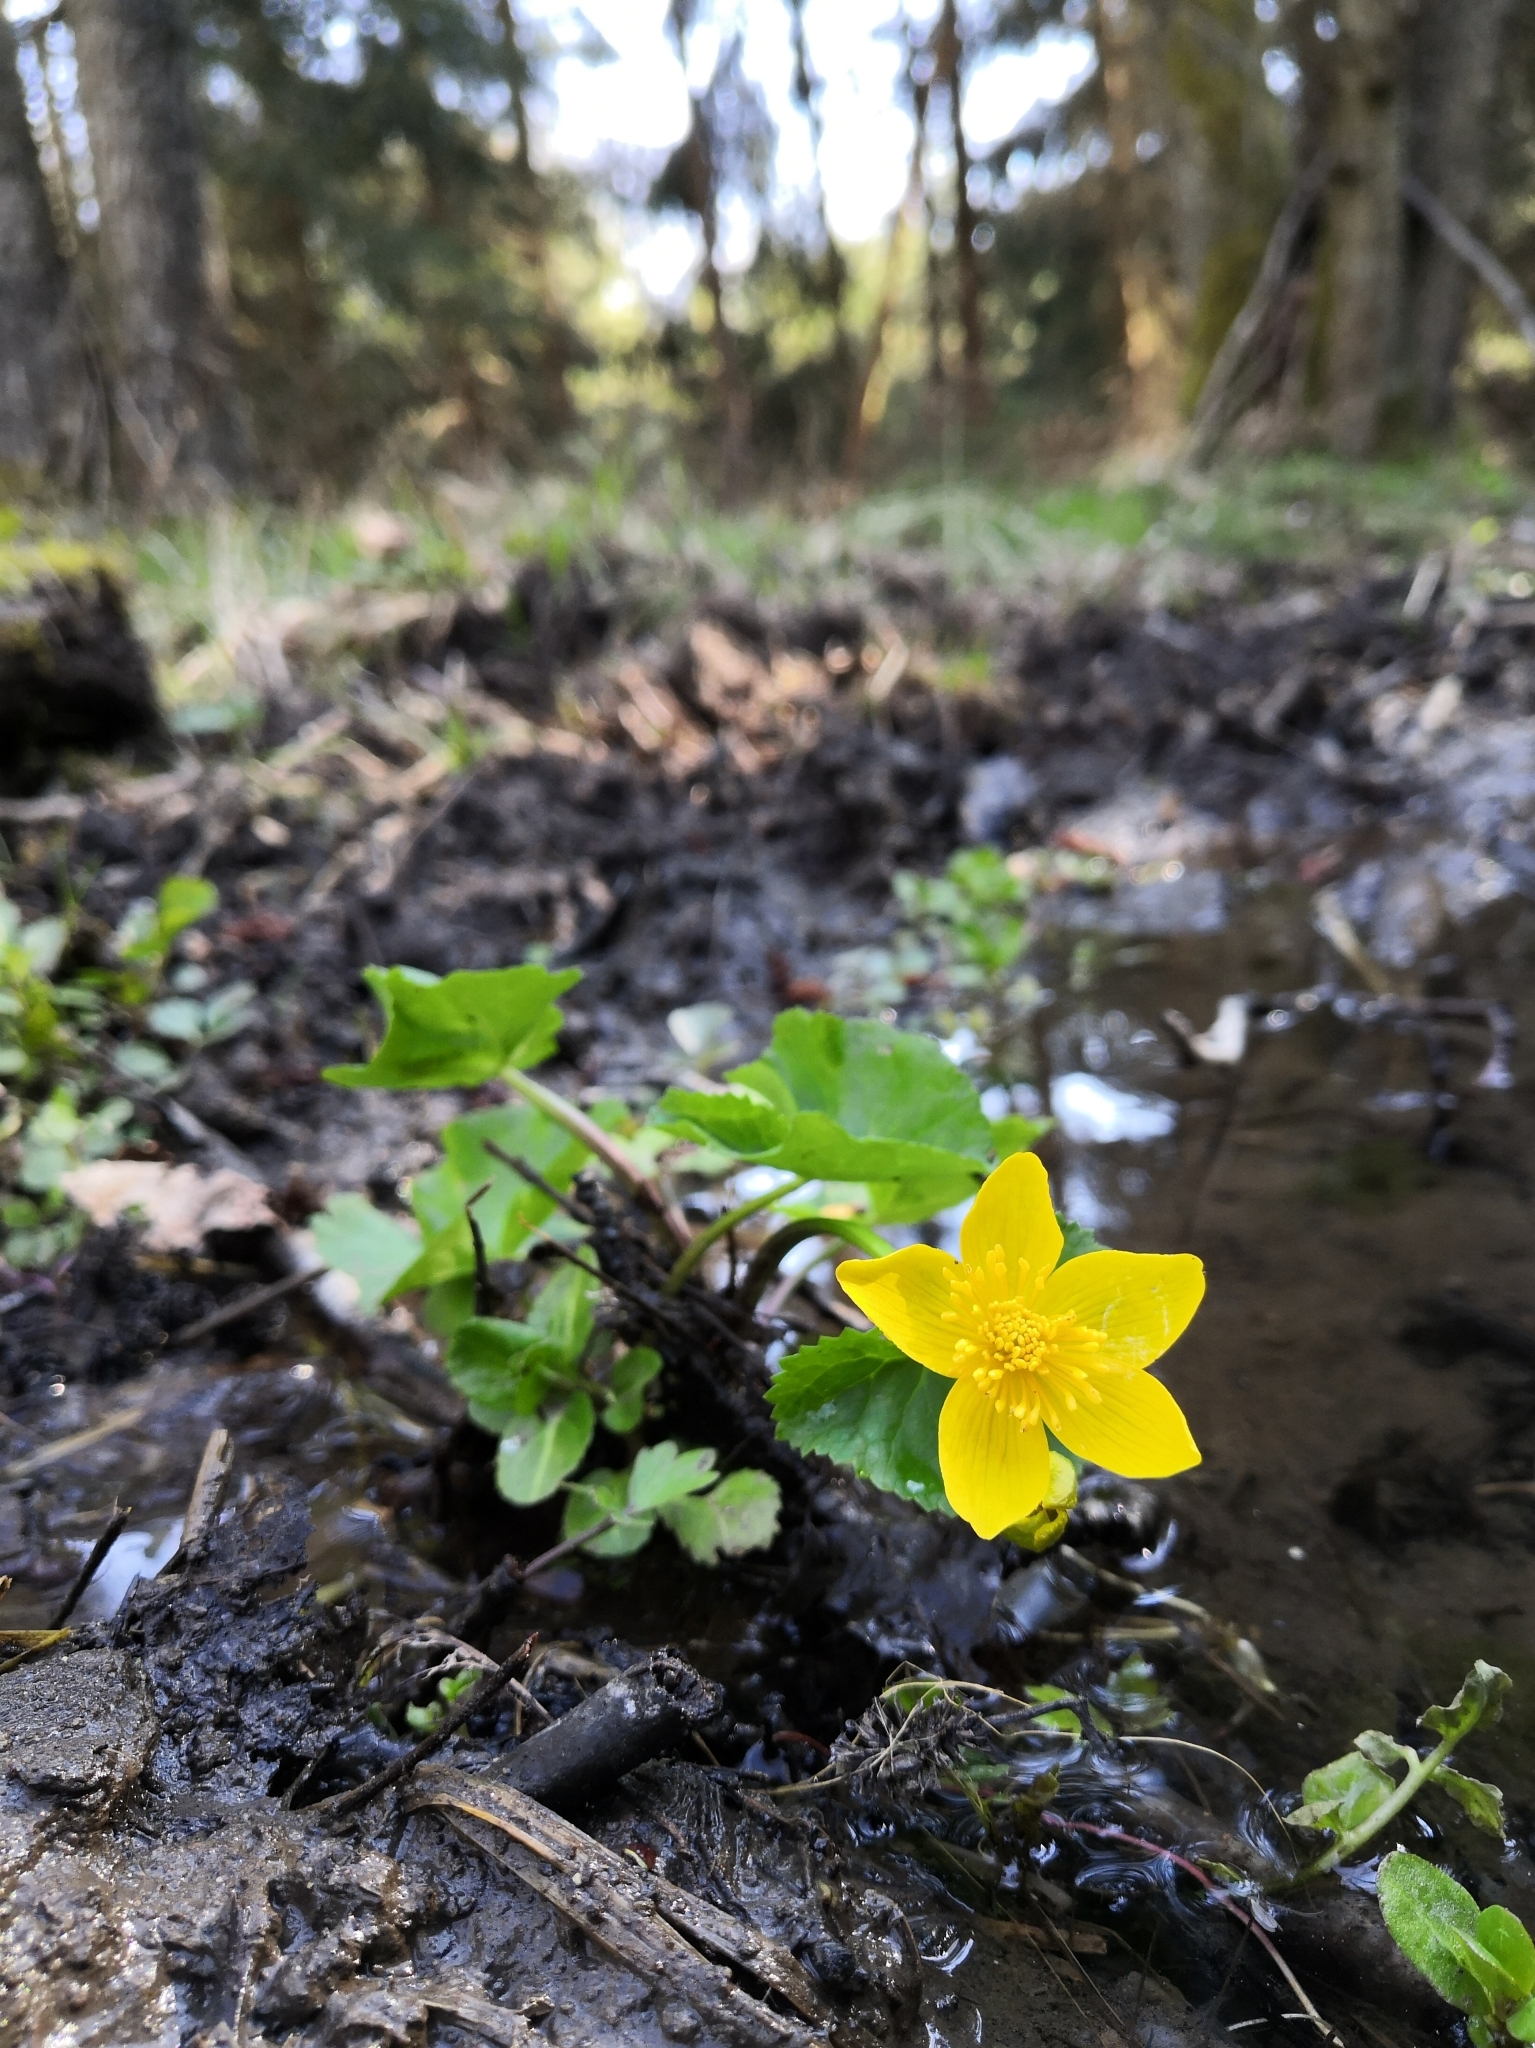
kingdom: Plantae
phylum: Tracheophyta
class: Magnoliopsida
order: Ranunculales
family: Ranunculaceae
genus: Caltha
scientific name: Caltha palustris
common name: Marsh marigold
